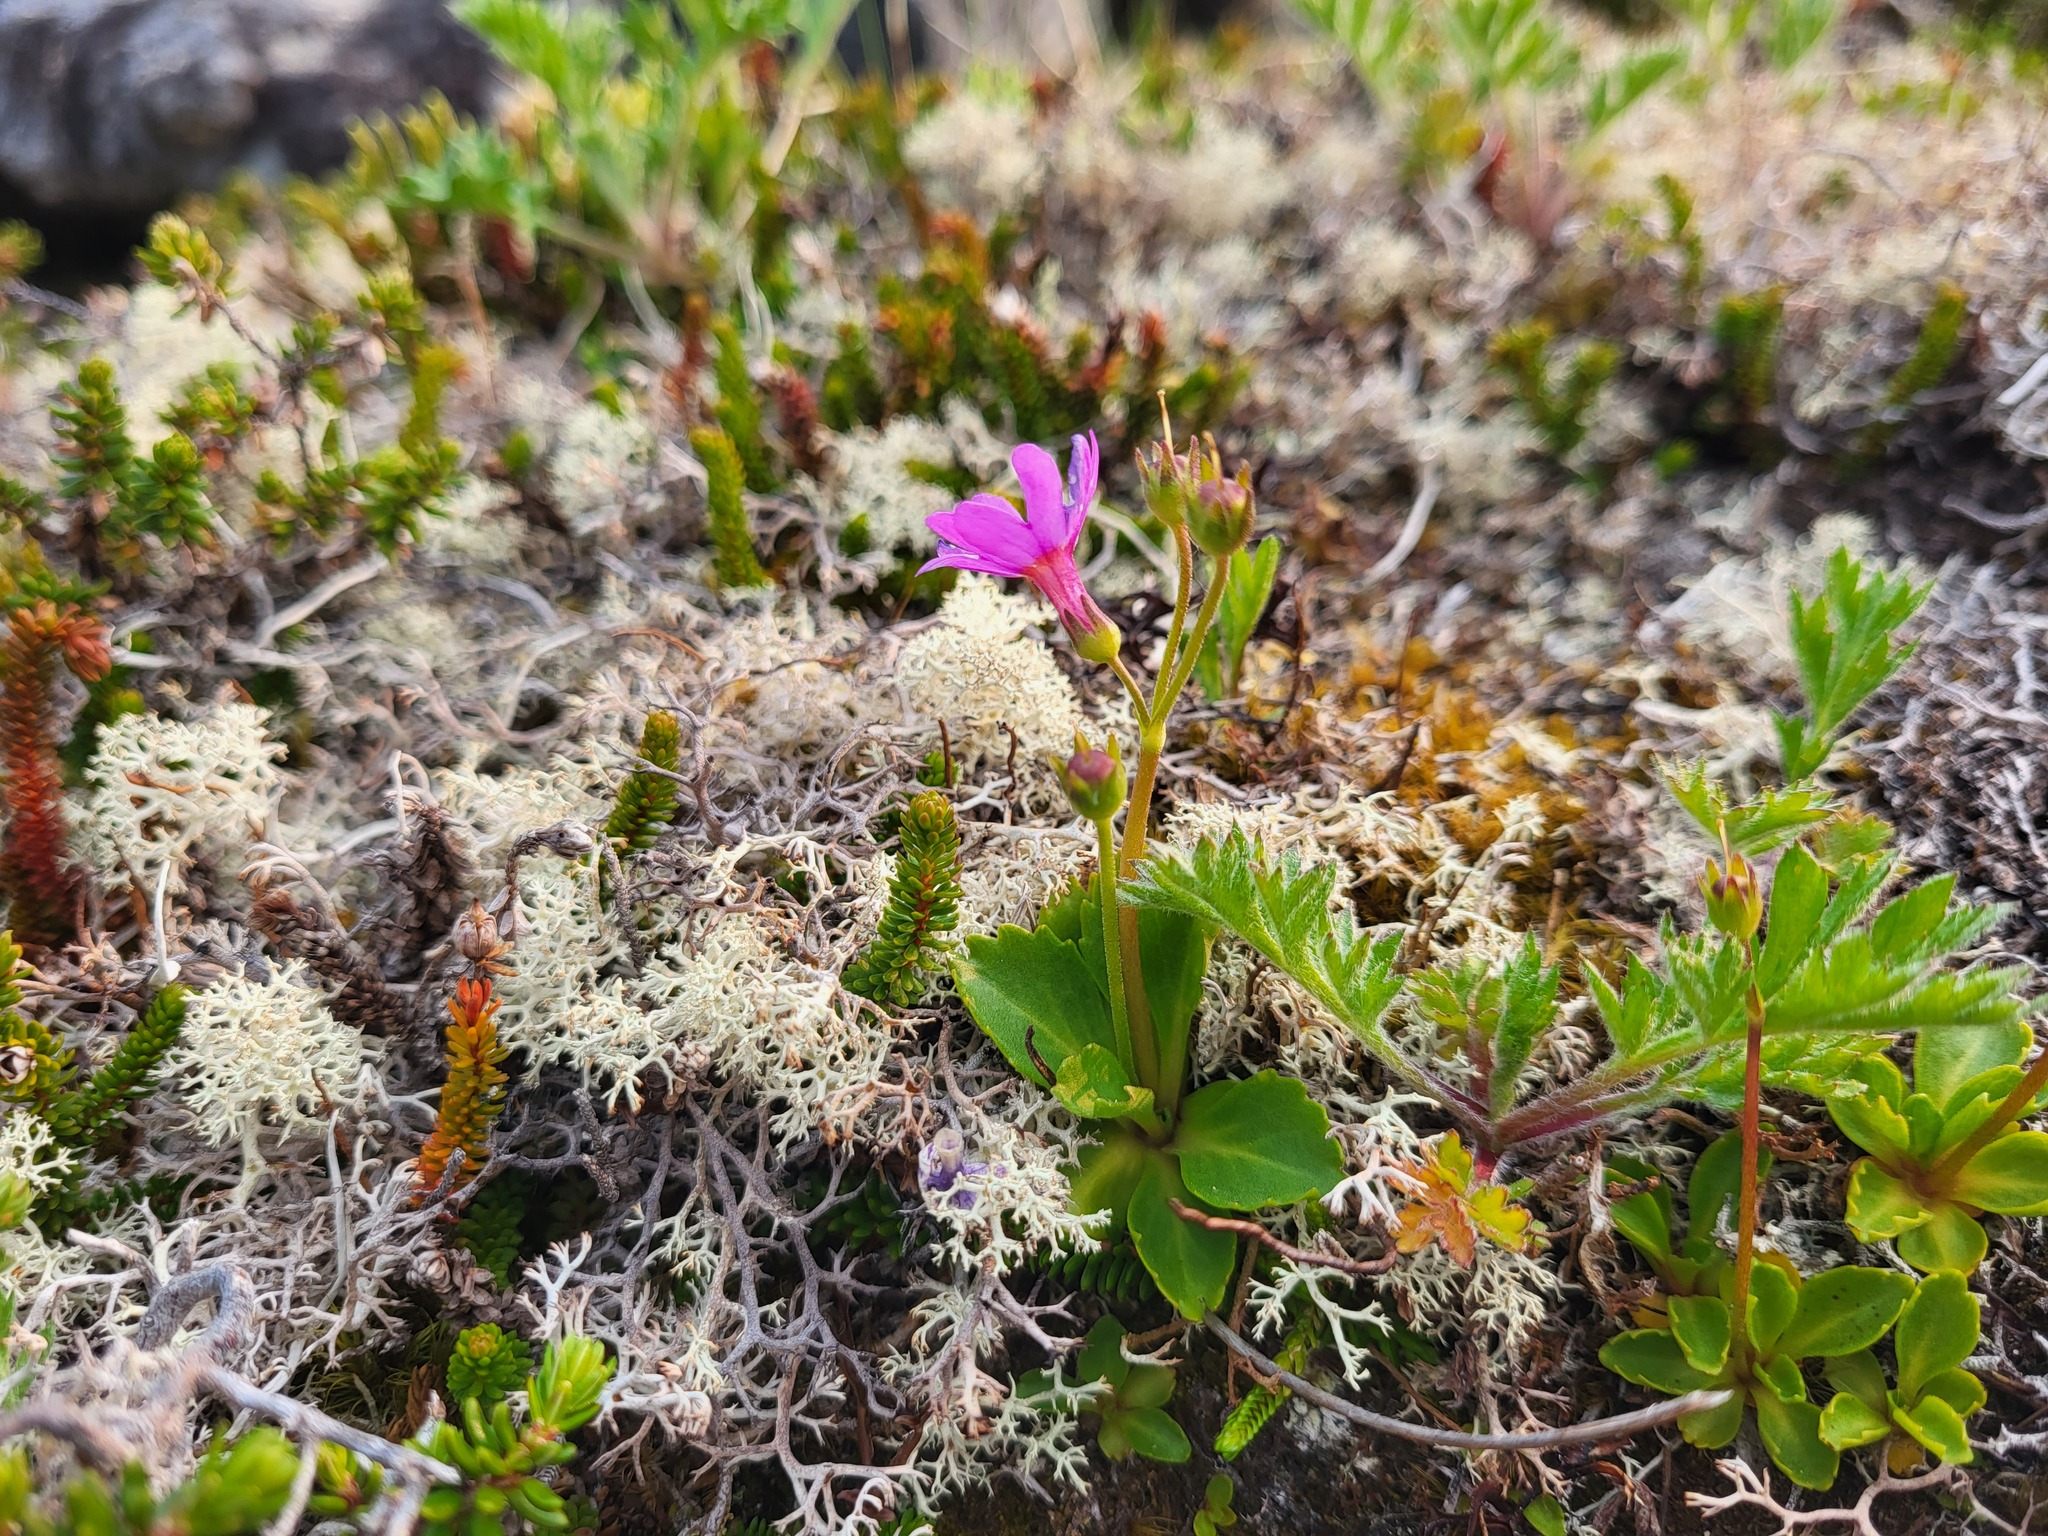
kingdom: Plantae
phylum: Tracheophyta
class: Magnoliopsida
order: Ericales
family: Primulaceae
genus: Primula
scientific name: Primula cuneifolia
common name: Wedge-leaved primrose
